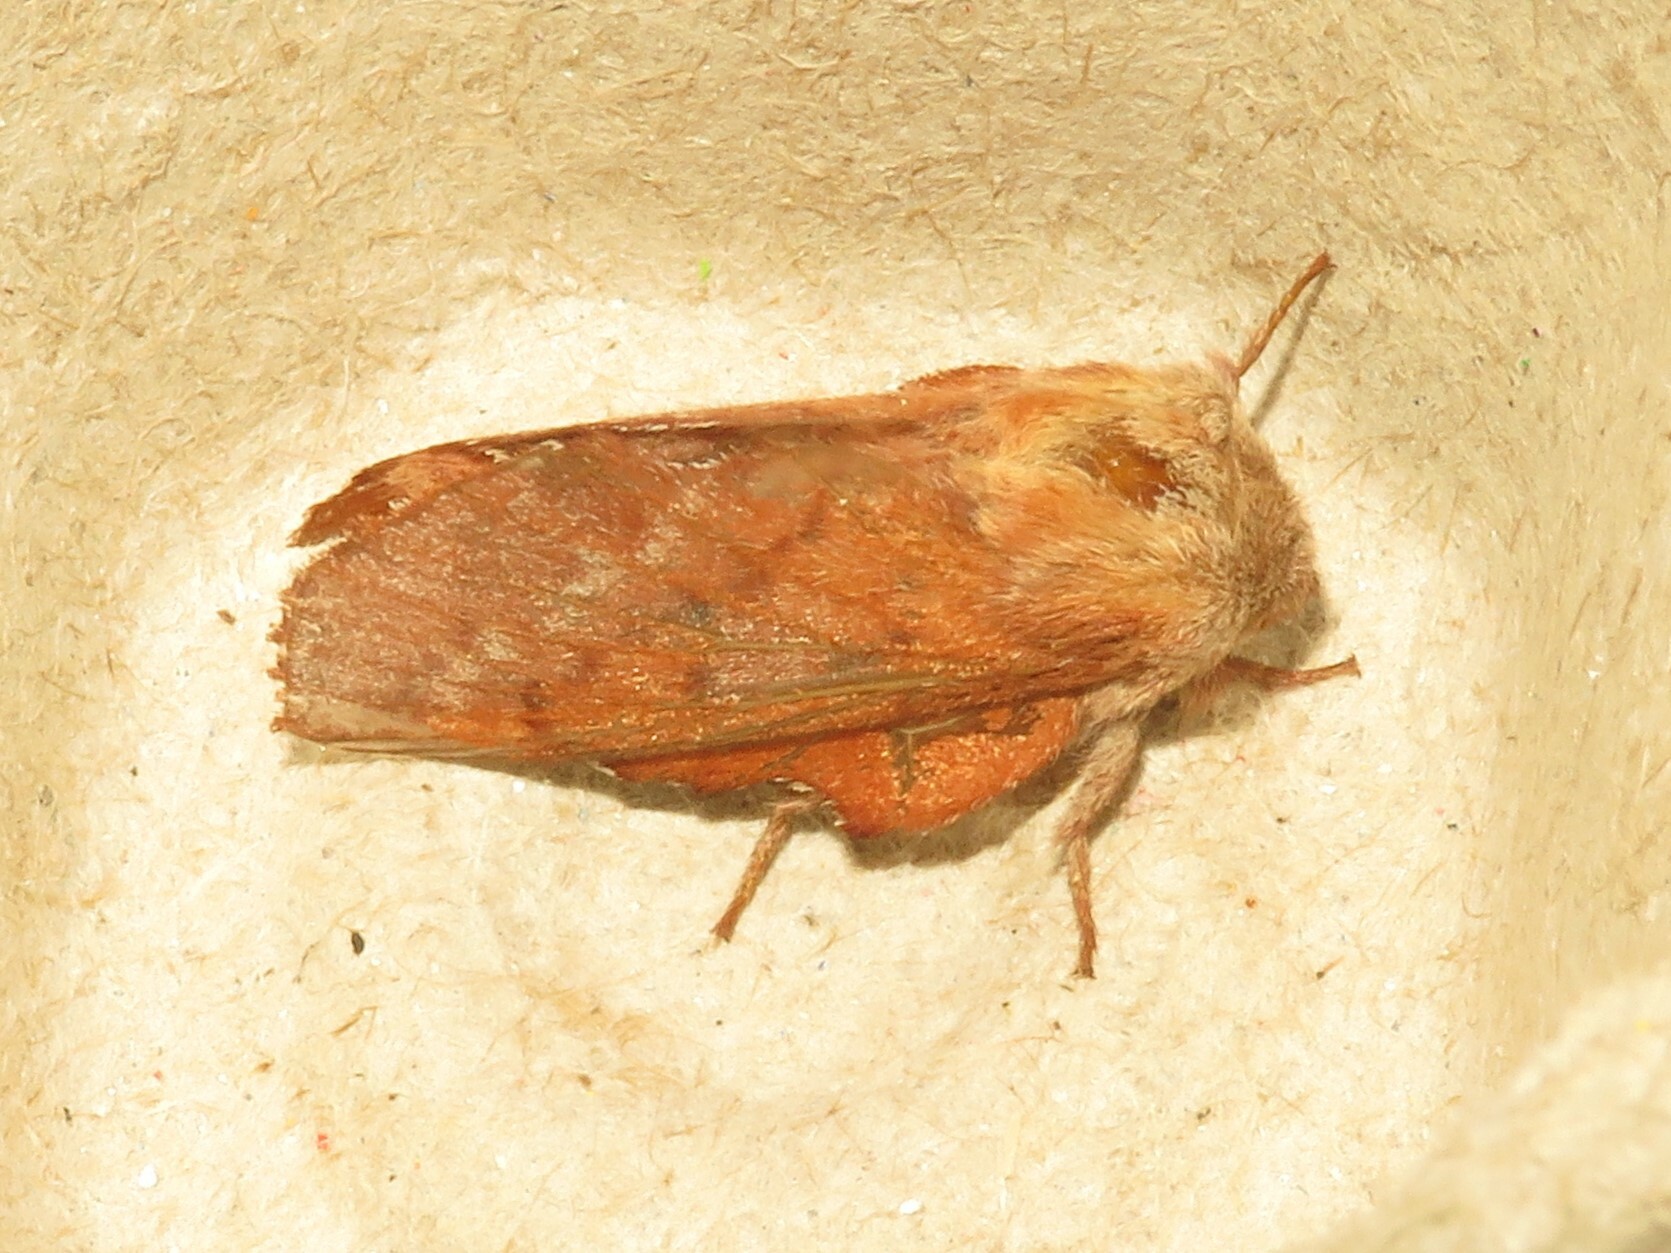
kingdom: Animalia
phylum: Arthropoda
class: Insecta
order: Lepidoptera
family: Lasiocampidae
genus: Phyllodesma
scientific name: Phyllodesma americana
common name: American lappet moth
